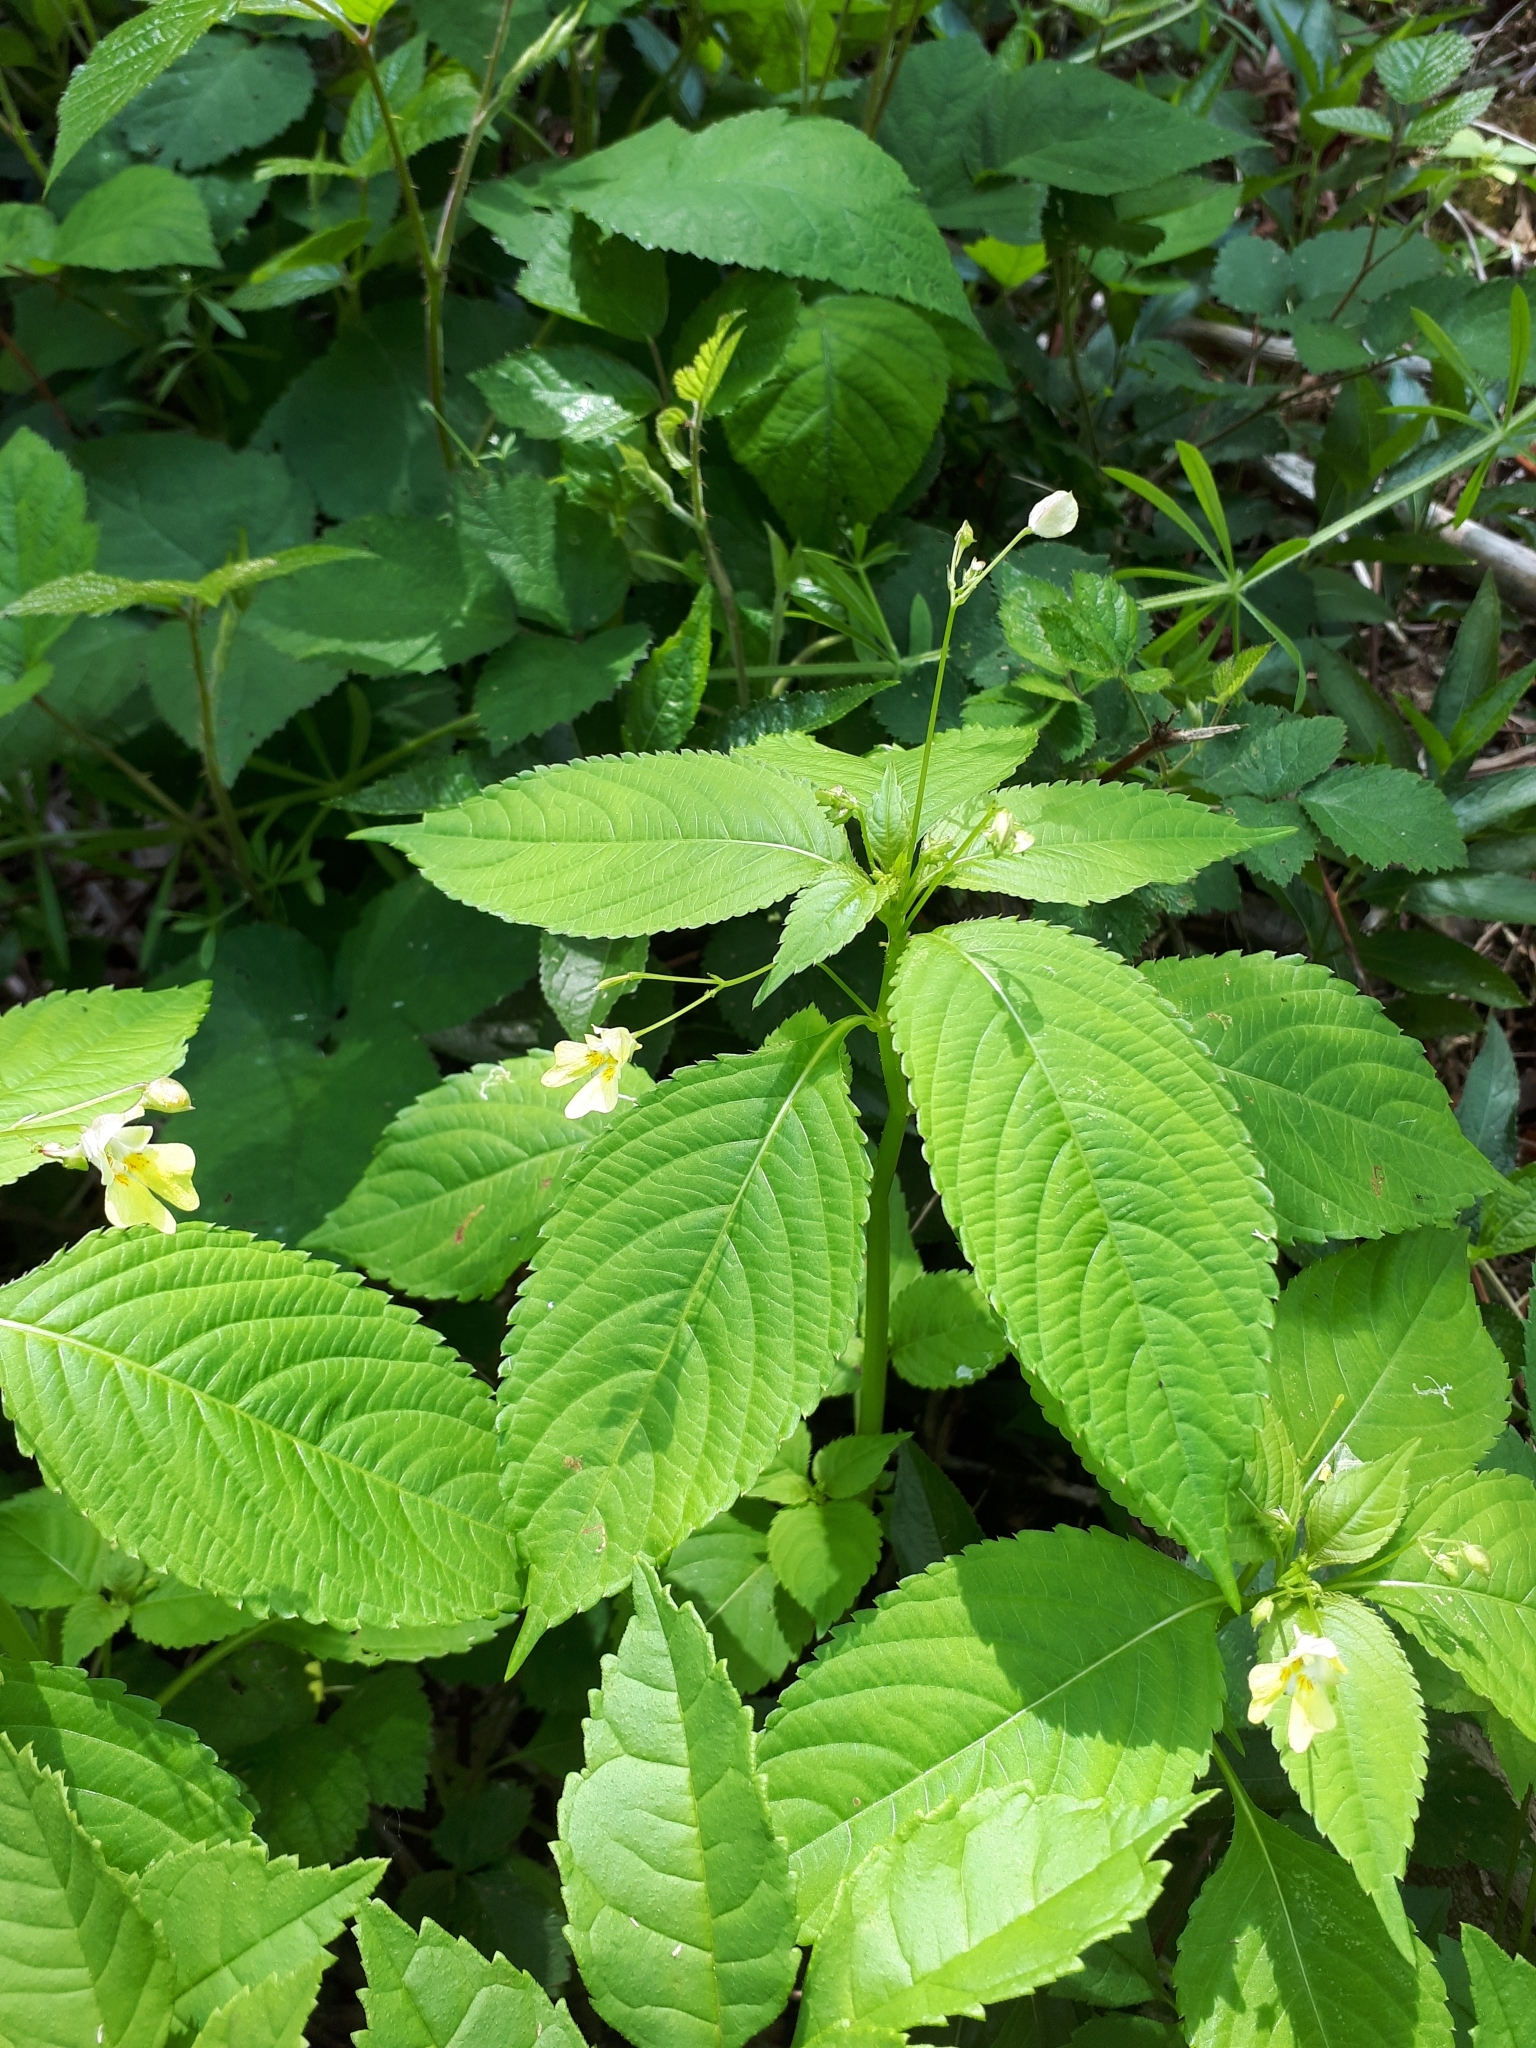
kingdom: Plantae
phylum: Tracheophyta
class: Magnoliopsida
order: Ericales
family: Balsaminaceae
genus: Impatiens
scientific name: Impatiens parviflora
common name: Small balsam
